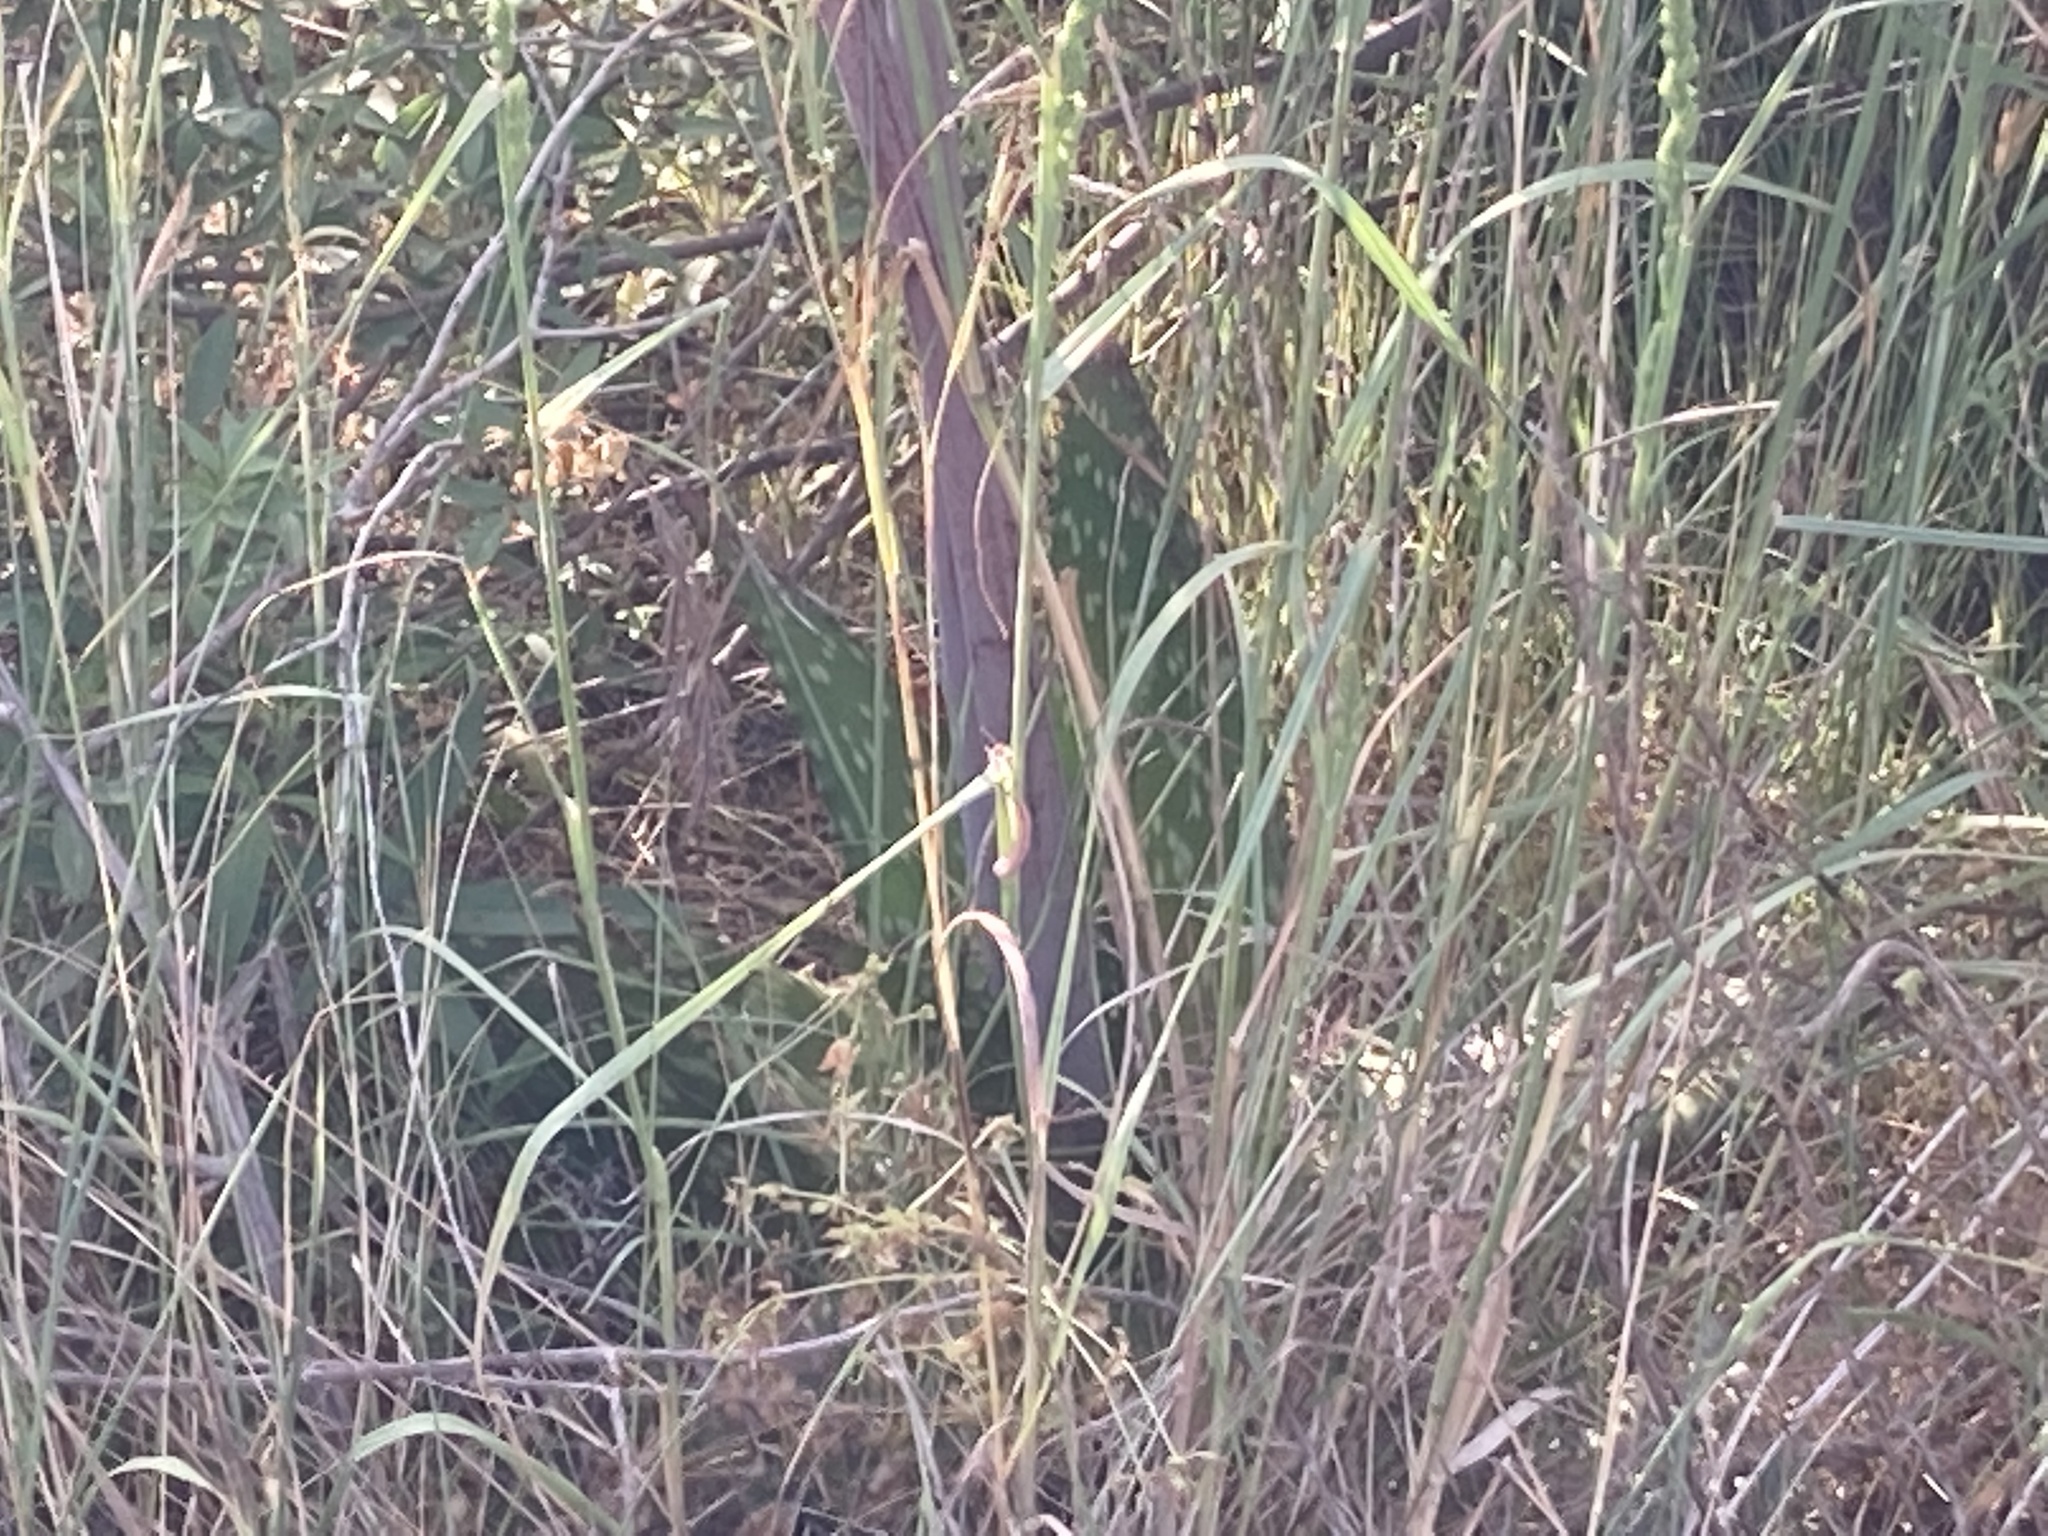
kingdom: Plantae
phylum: Tracheophyta
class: Liliopsida
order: Asparagales
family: Asphodelaceae
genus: Aloe
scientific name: Aloe maculata
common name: Broadleaf aloe
